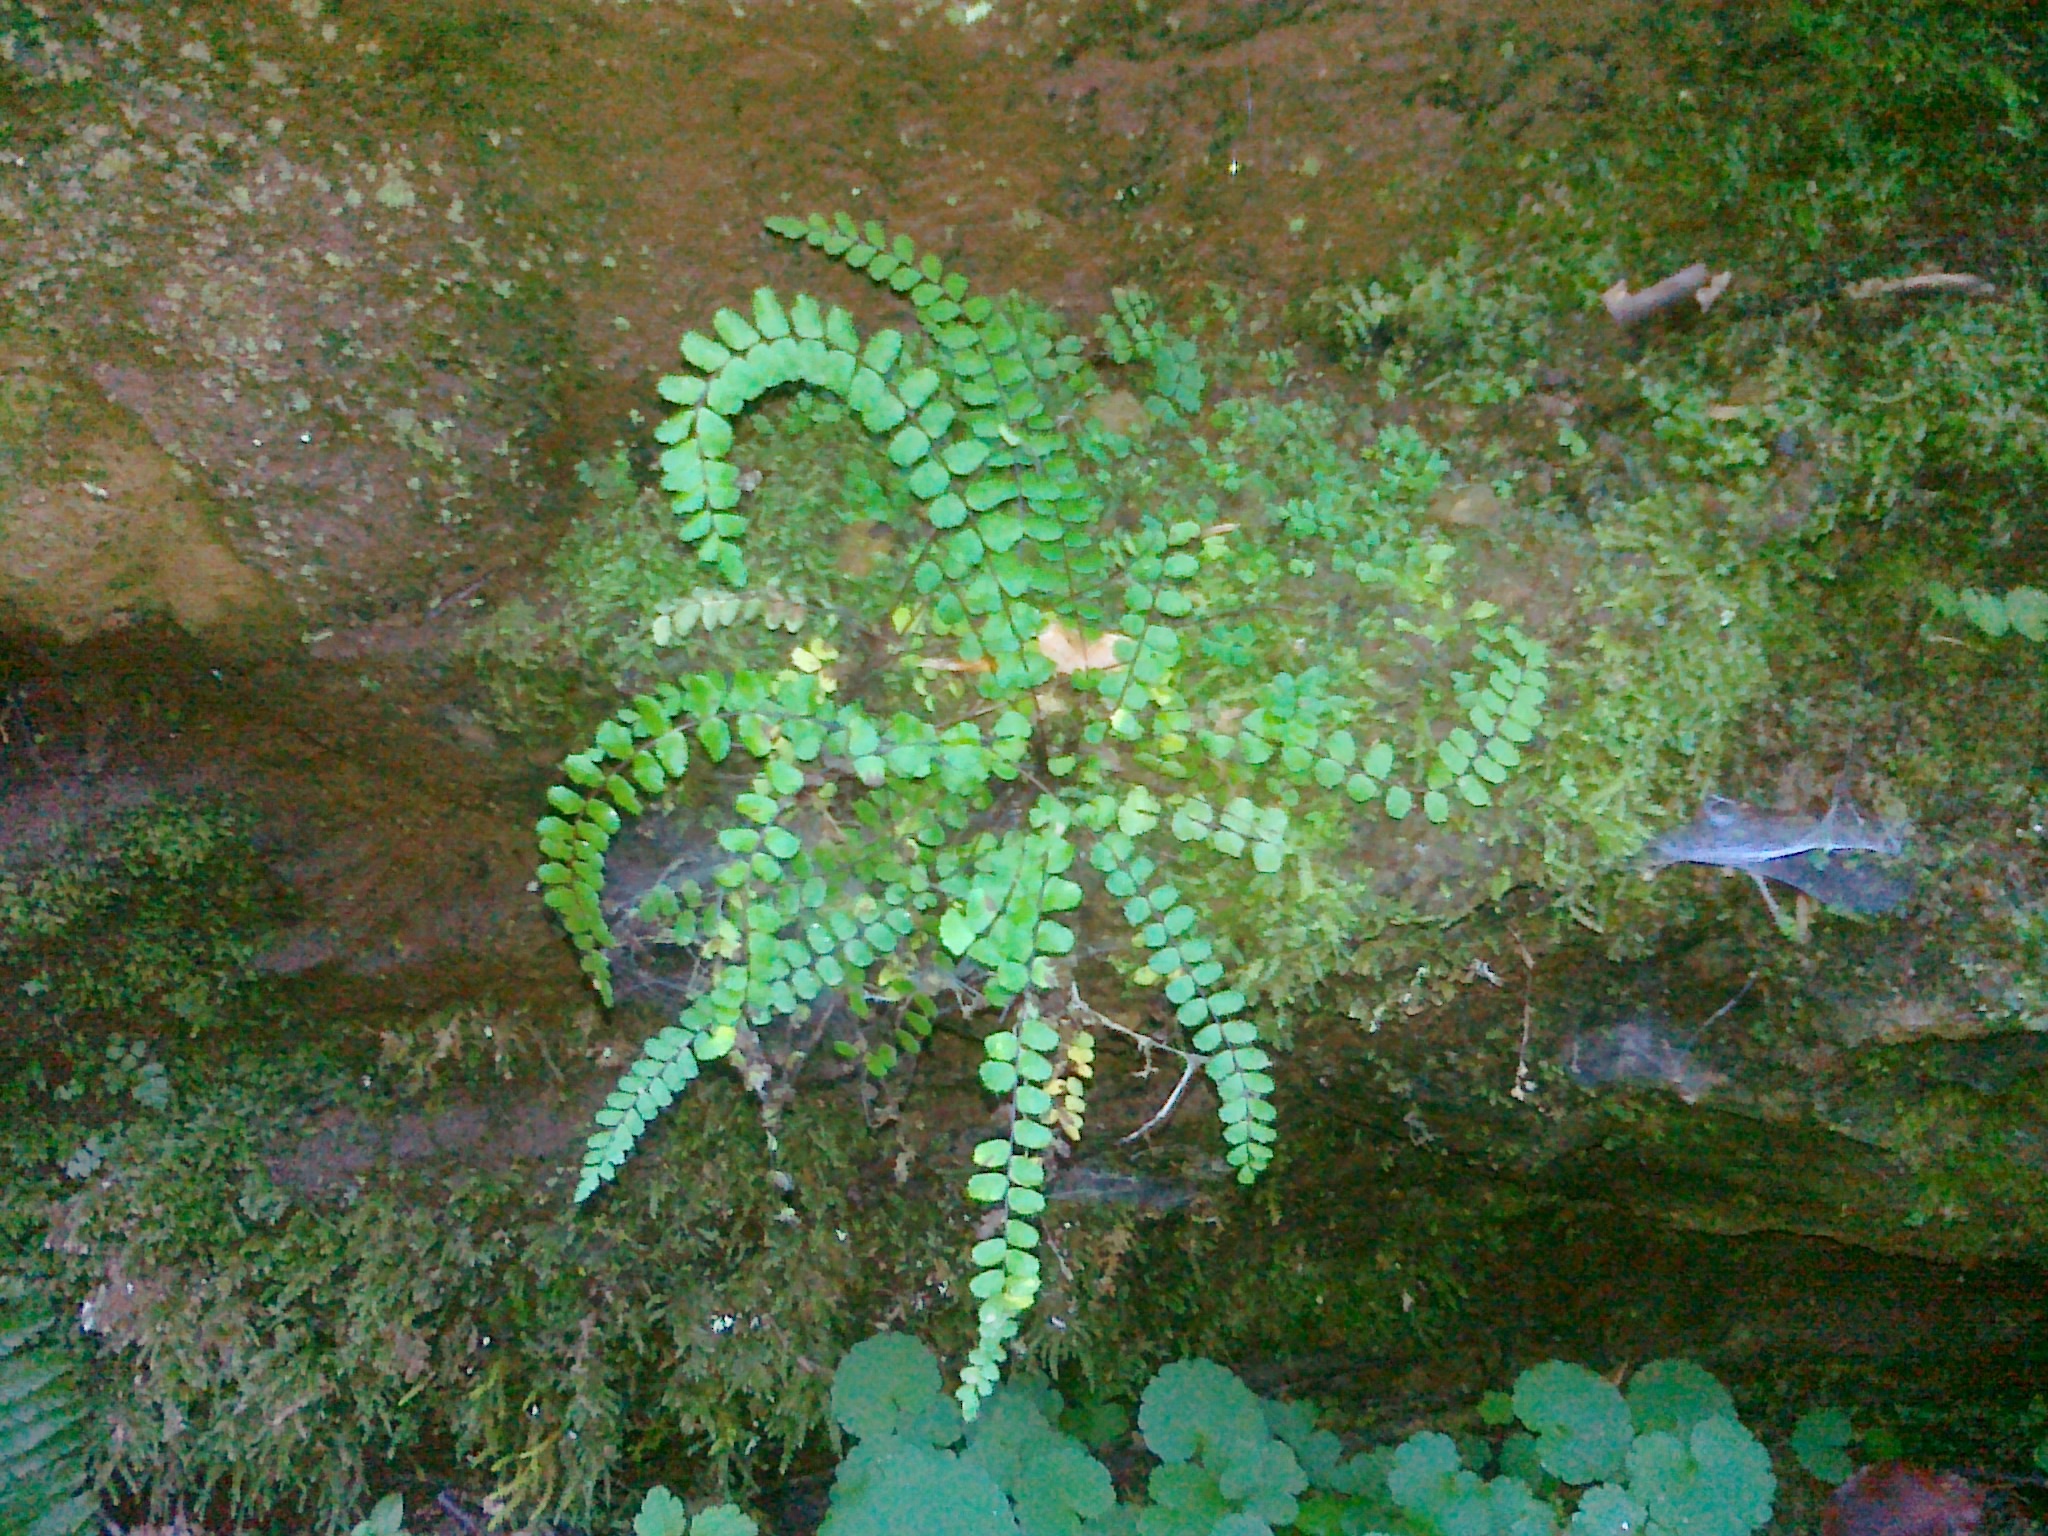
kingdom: Plantae
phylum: Tracheophyta
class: Polypodiopsida
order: Polypodiales
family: Aspleniaceae
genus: Asplenium
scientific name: Asplenium trichomanes
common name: Maidenhair spleenwort
